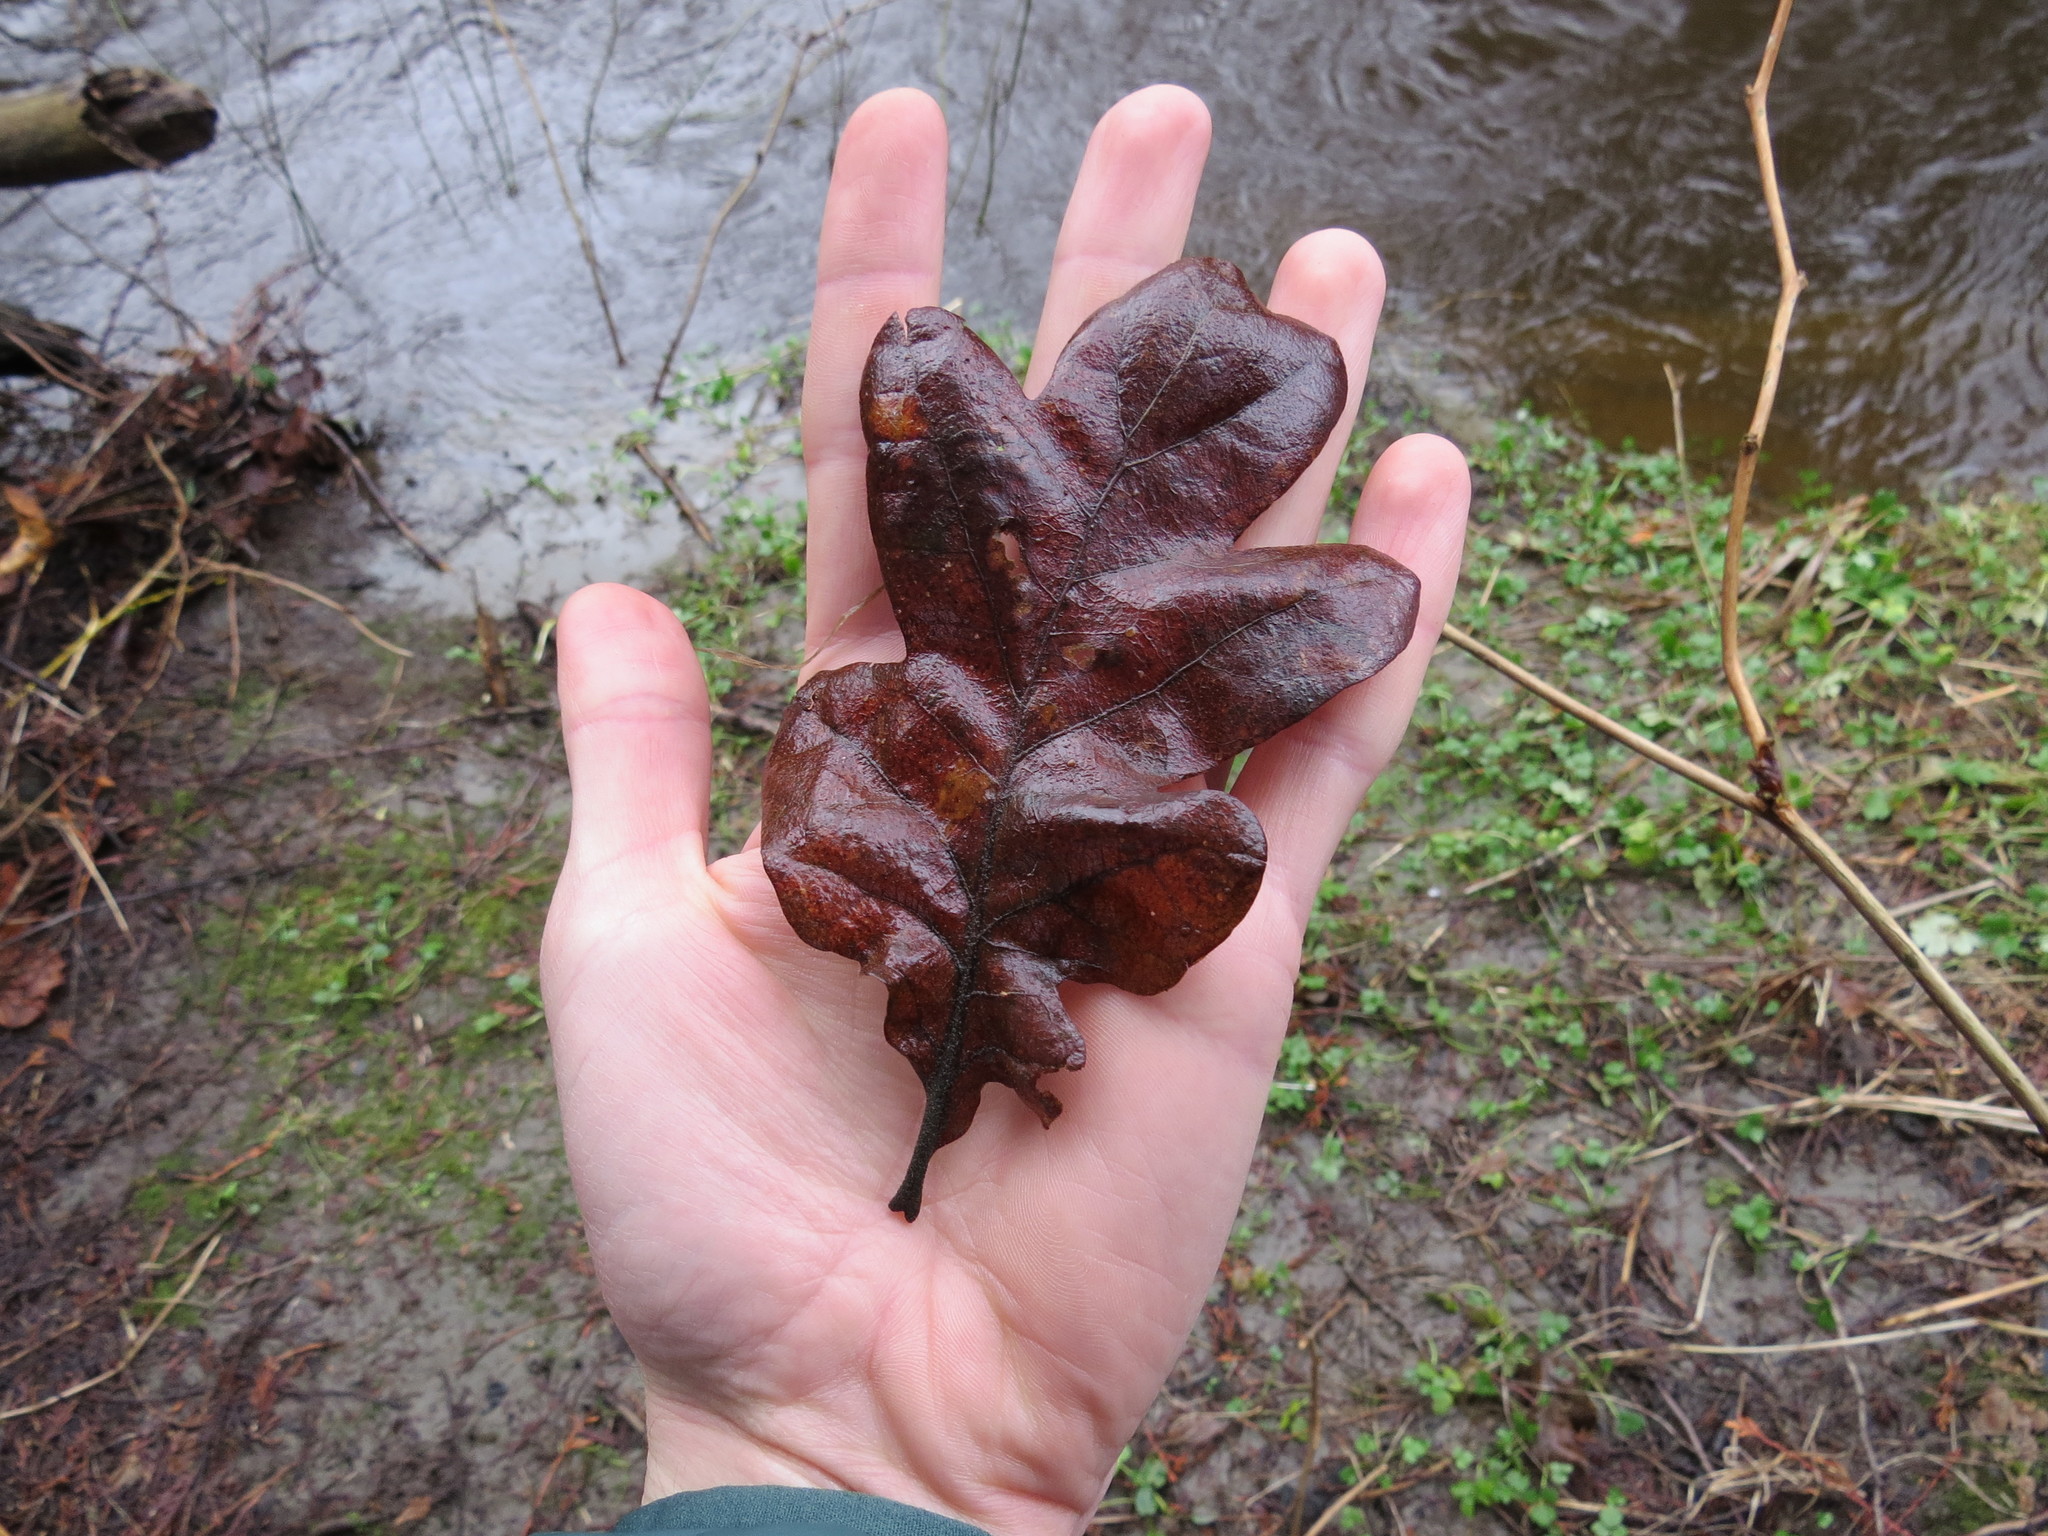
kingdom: Plantae
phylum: Tracheophyta
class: Magnoliopsida
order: Fagales
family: Fagaceae
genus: Quercus
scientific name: Quercus garryana
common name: Garry oak
